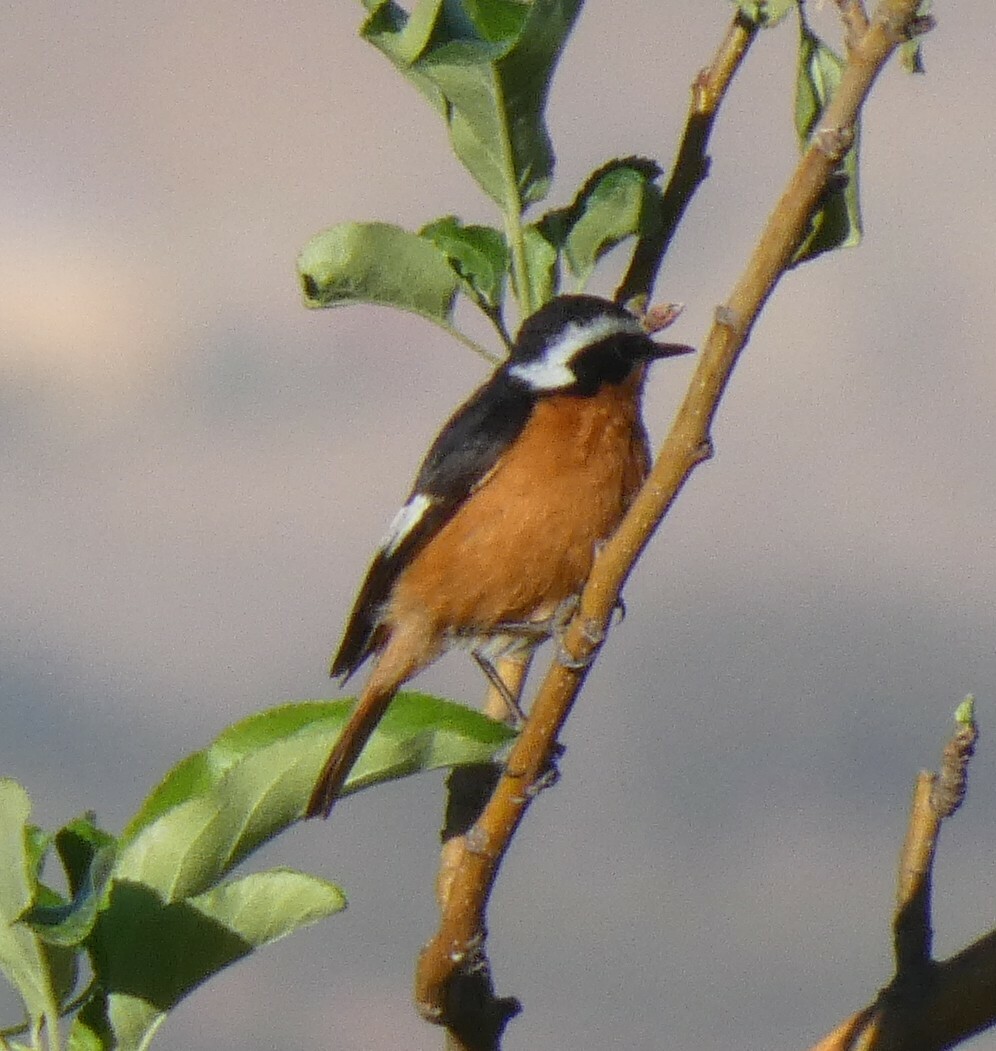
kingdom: Animalia
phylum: Chordata
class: Aves
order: Passeriformes
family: Muscicapidae
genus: Phoenicurus
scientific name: Phoenicurus moussieri
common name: Moussier's redstart
